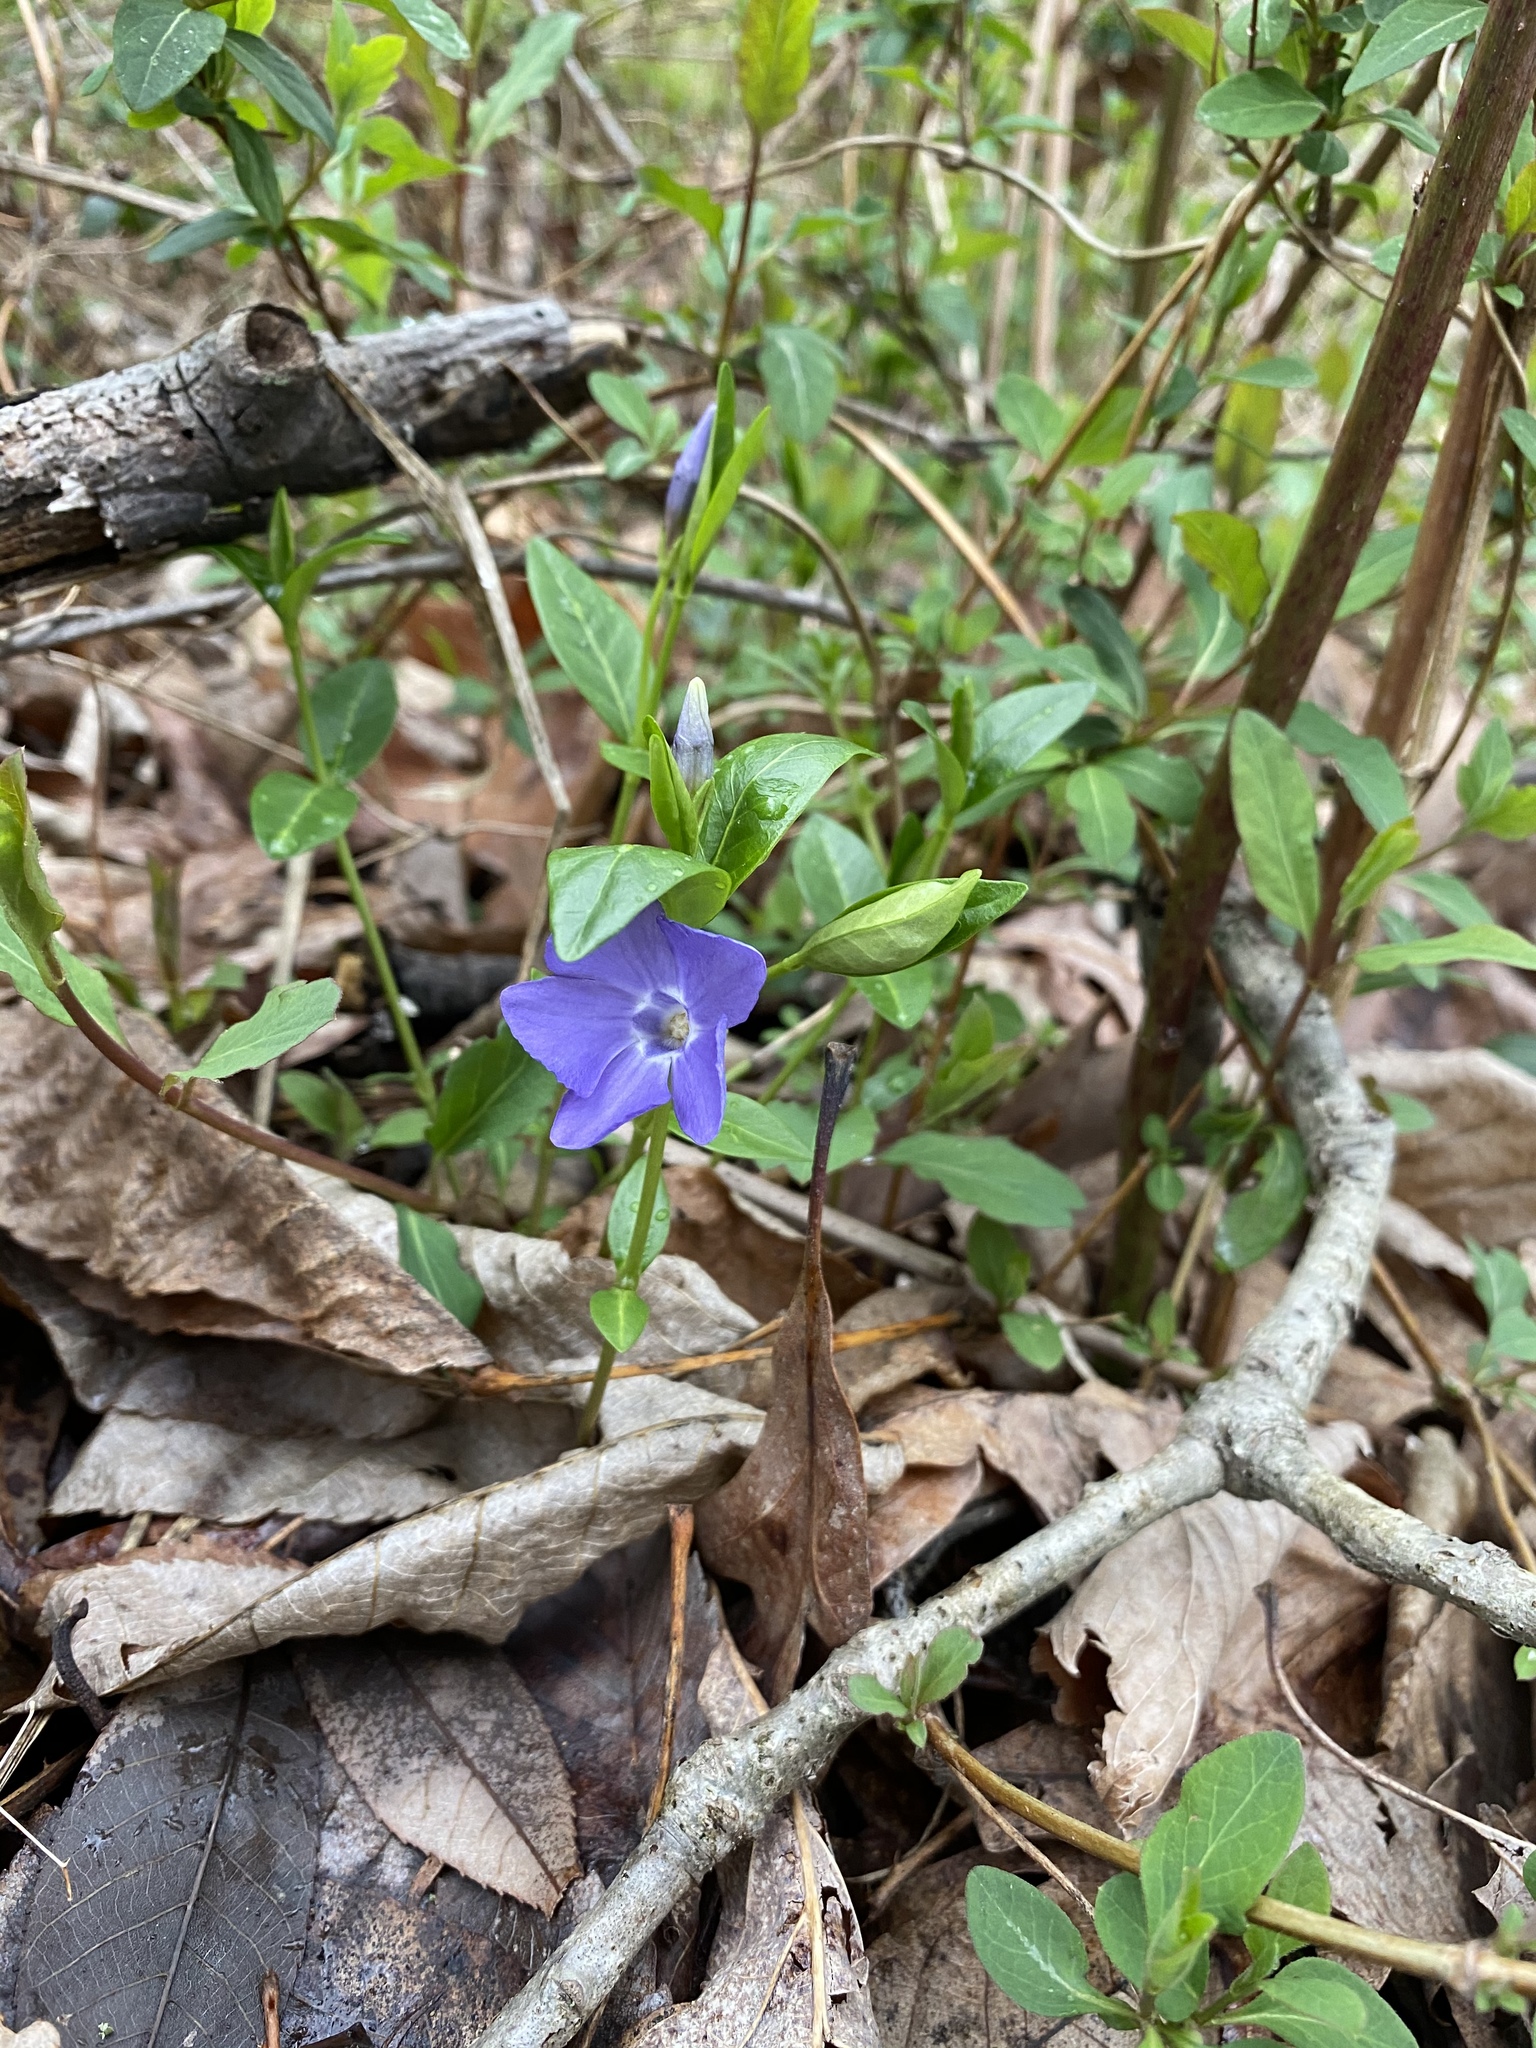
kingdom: Plantae
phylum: Tracheophyta
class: Magnoliopsida
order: Gentianales
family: Apocynaceae
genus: Vinca
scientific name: Vinca minor
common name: Lesser periwinkle
